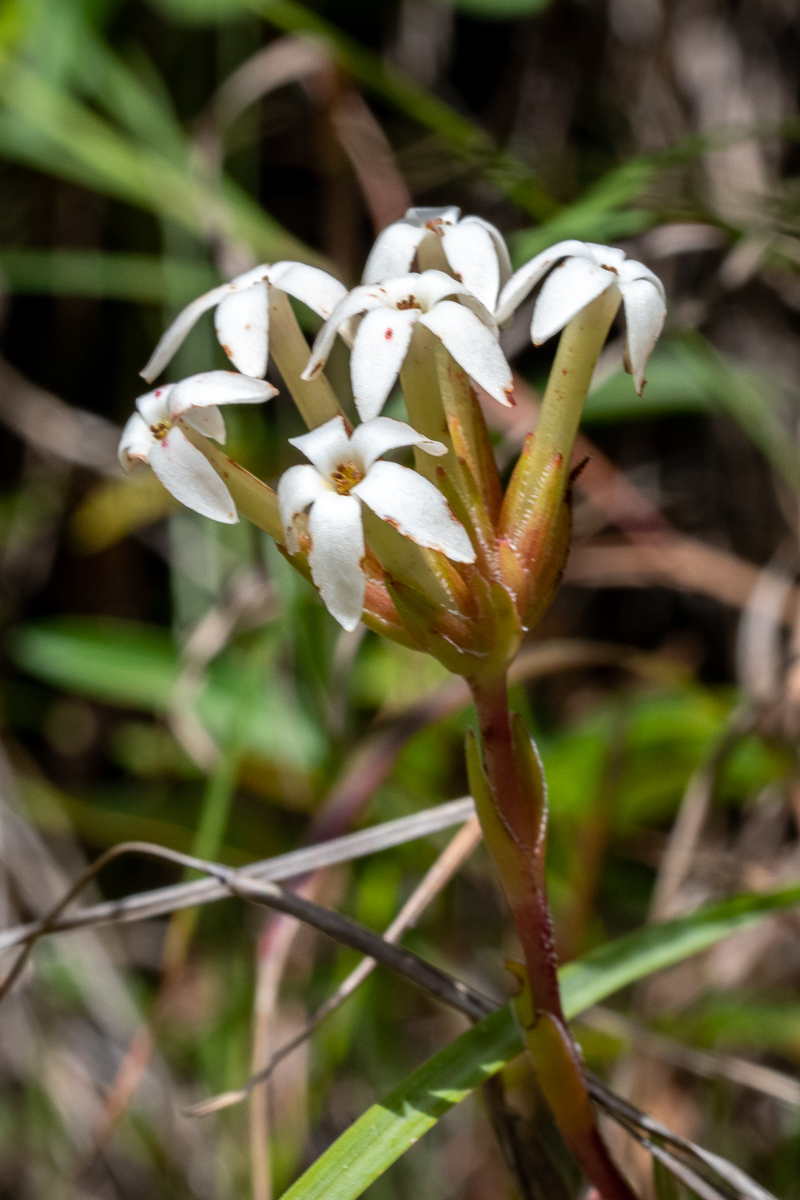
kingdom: Plantae
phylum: Tracheophyta
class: Magnoliopsida
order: Saxifragales
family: Crassulaceae
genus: Crassula
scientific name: Crassula fascicularis
